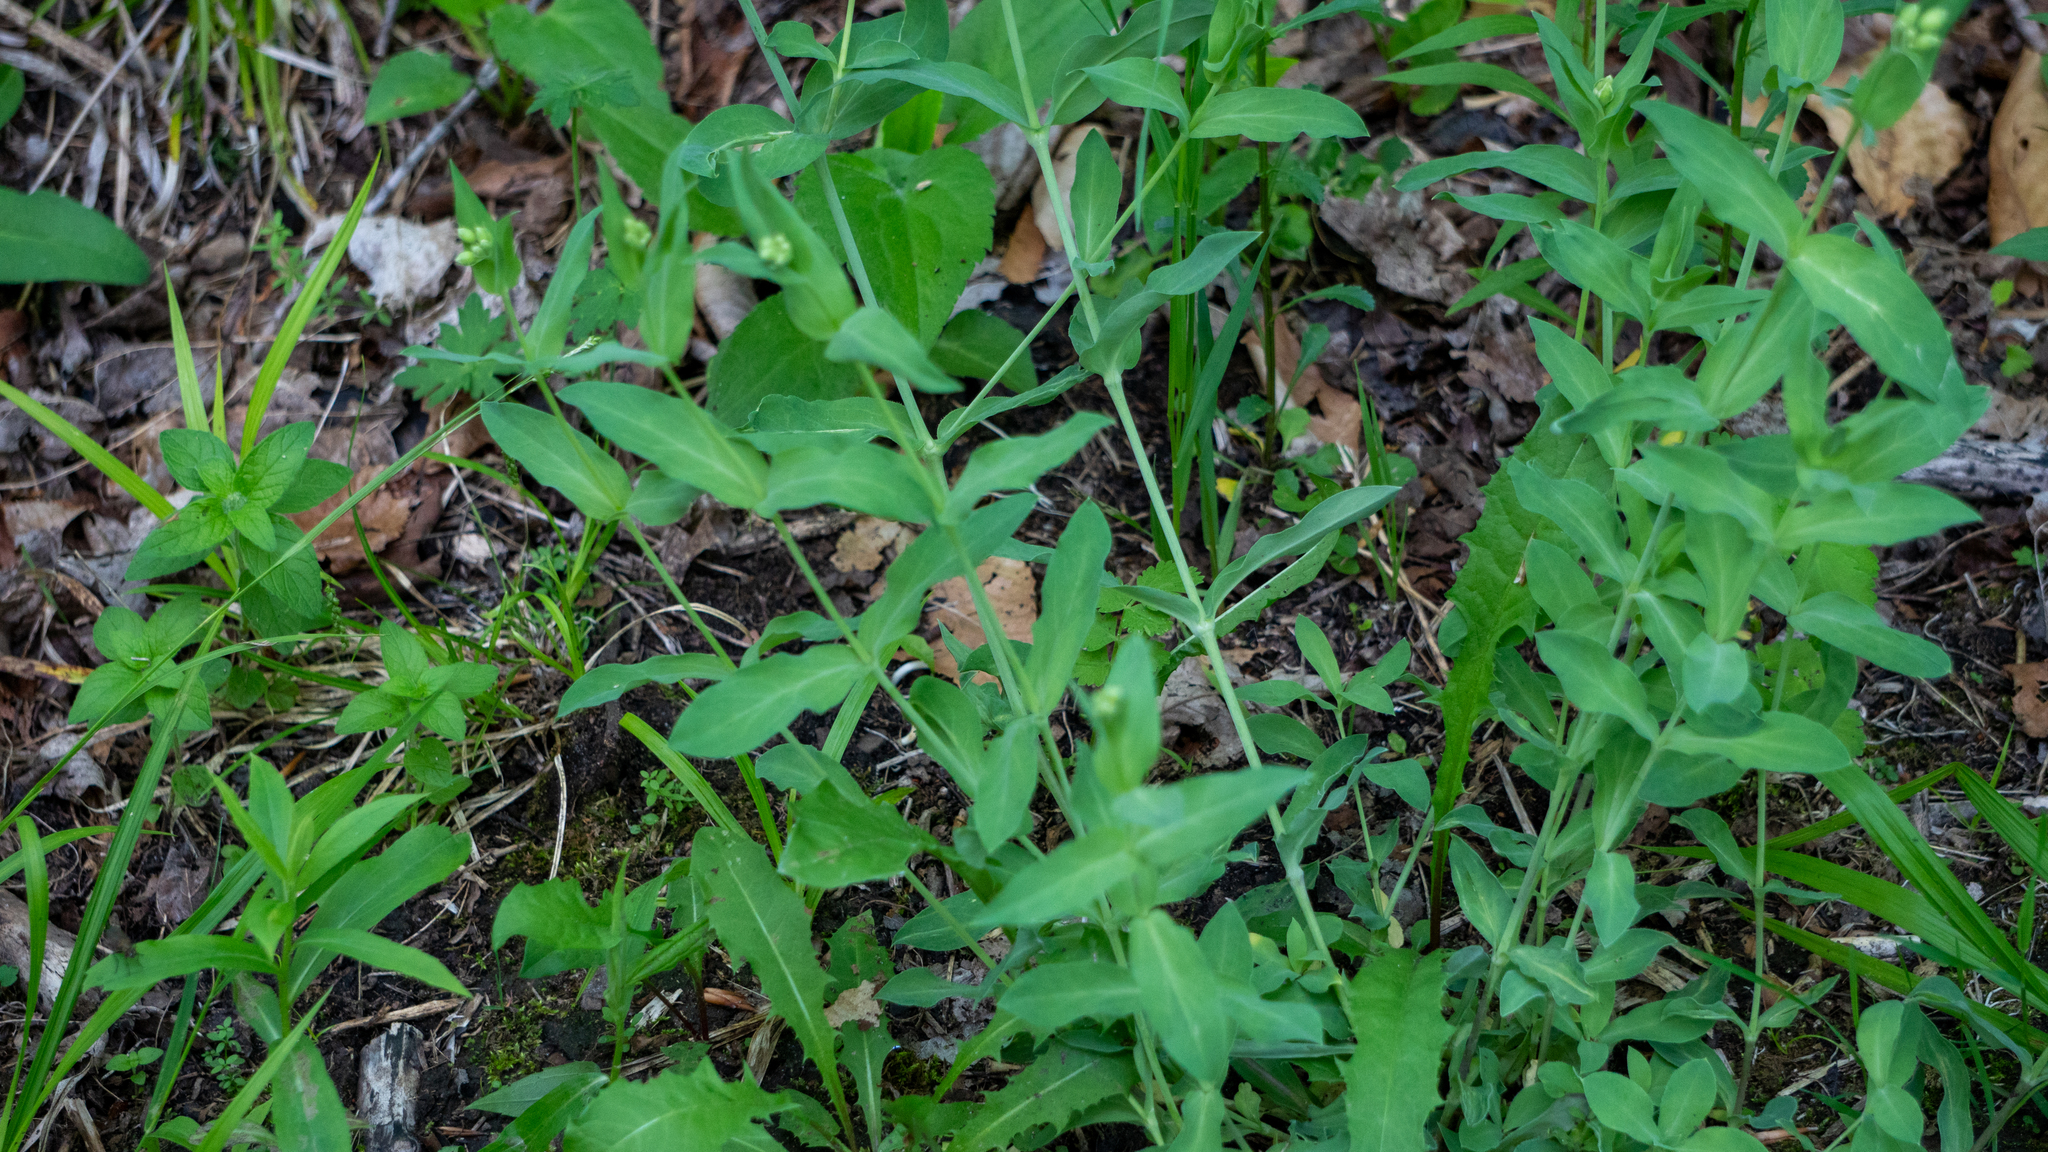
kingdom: Plantae
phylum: Tracheophyta
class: Magnoliopsida
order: Caryophyllales
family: Caryophyllaceae
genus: Silene
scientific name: Silene vulgaris
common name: Bladder campion
